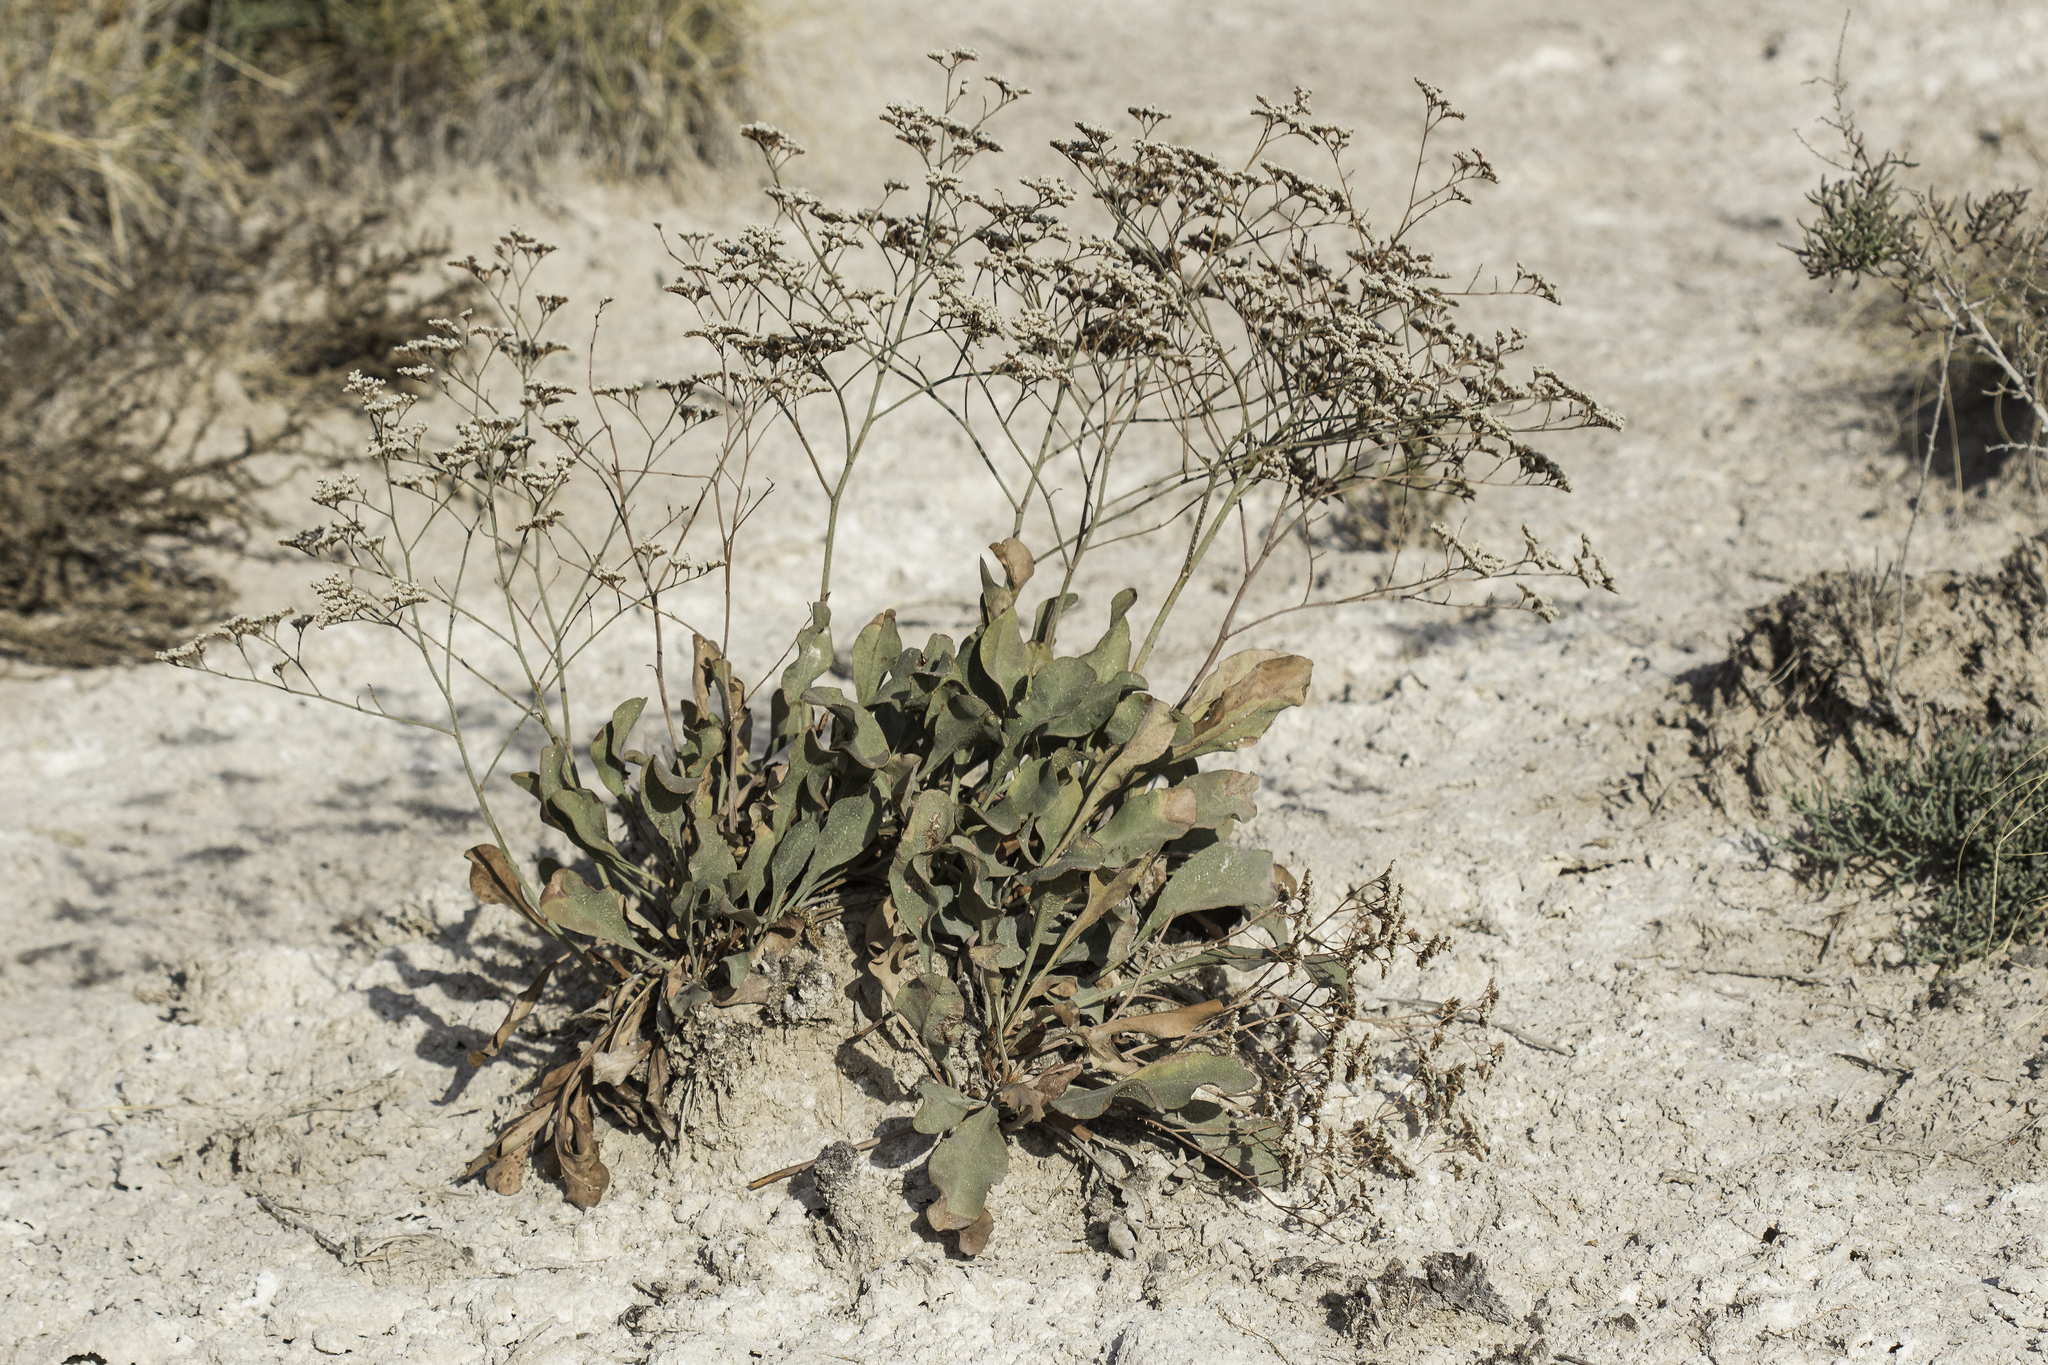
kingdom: Plantae
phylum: Tracheophyta
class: Magnoliopsida
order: Caryophyllales
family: Plumbaginaceae
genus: Limonium
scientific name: Limonium limbatum
